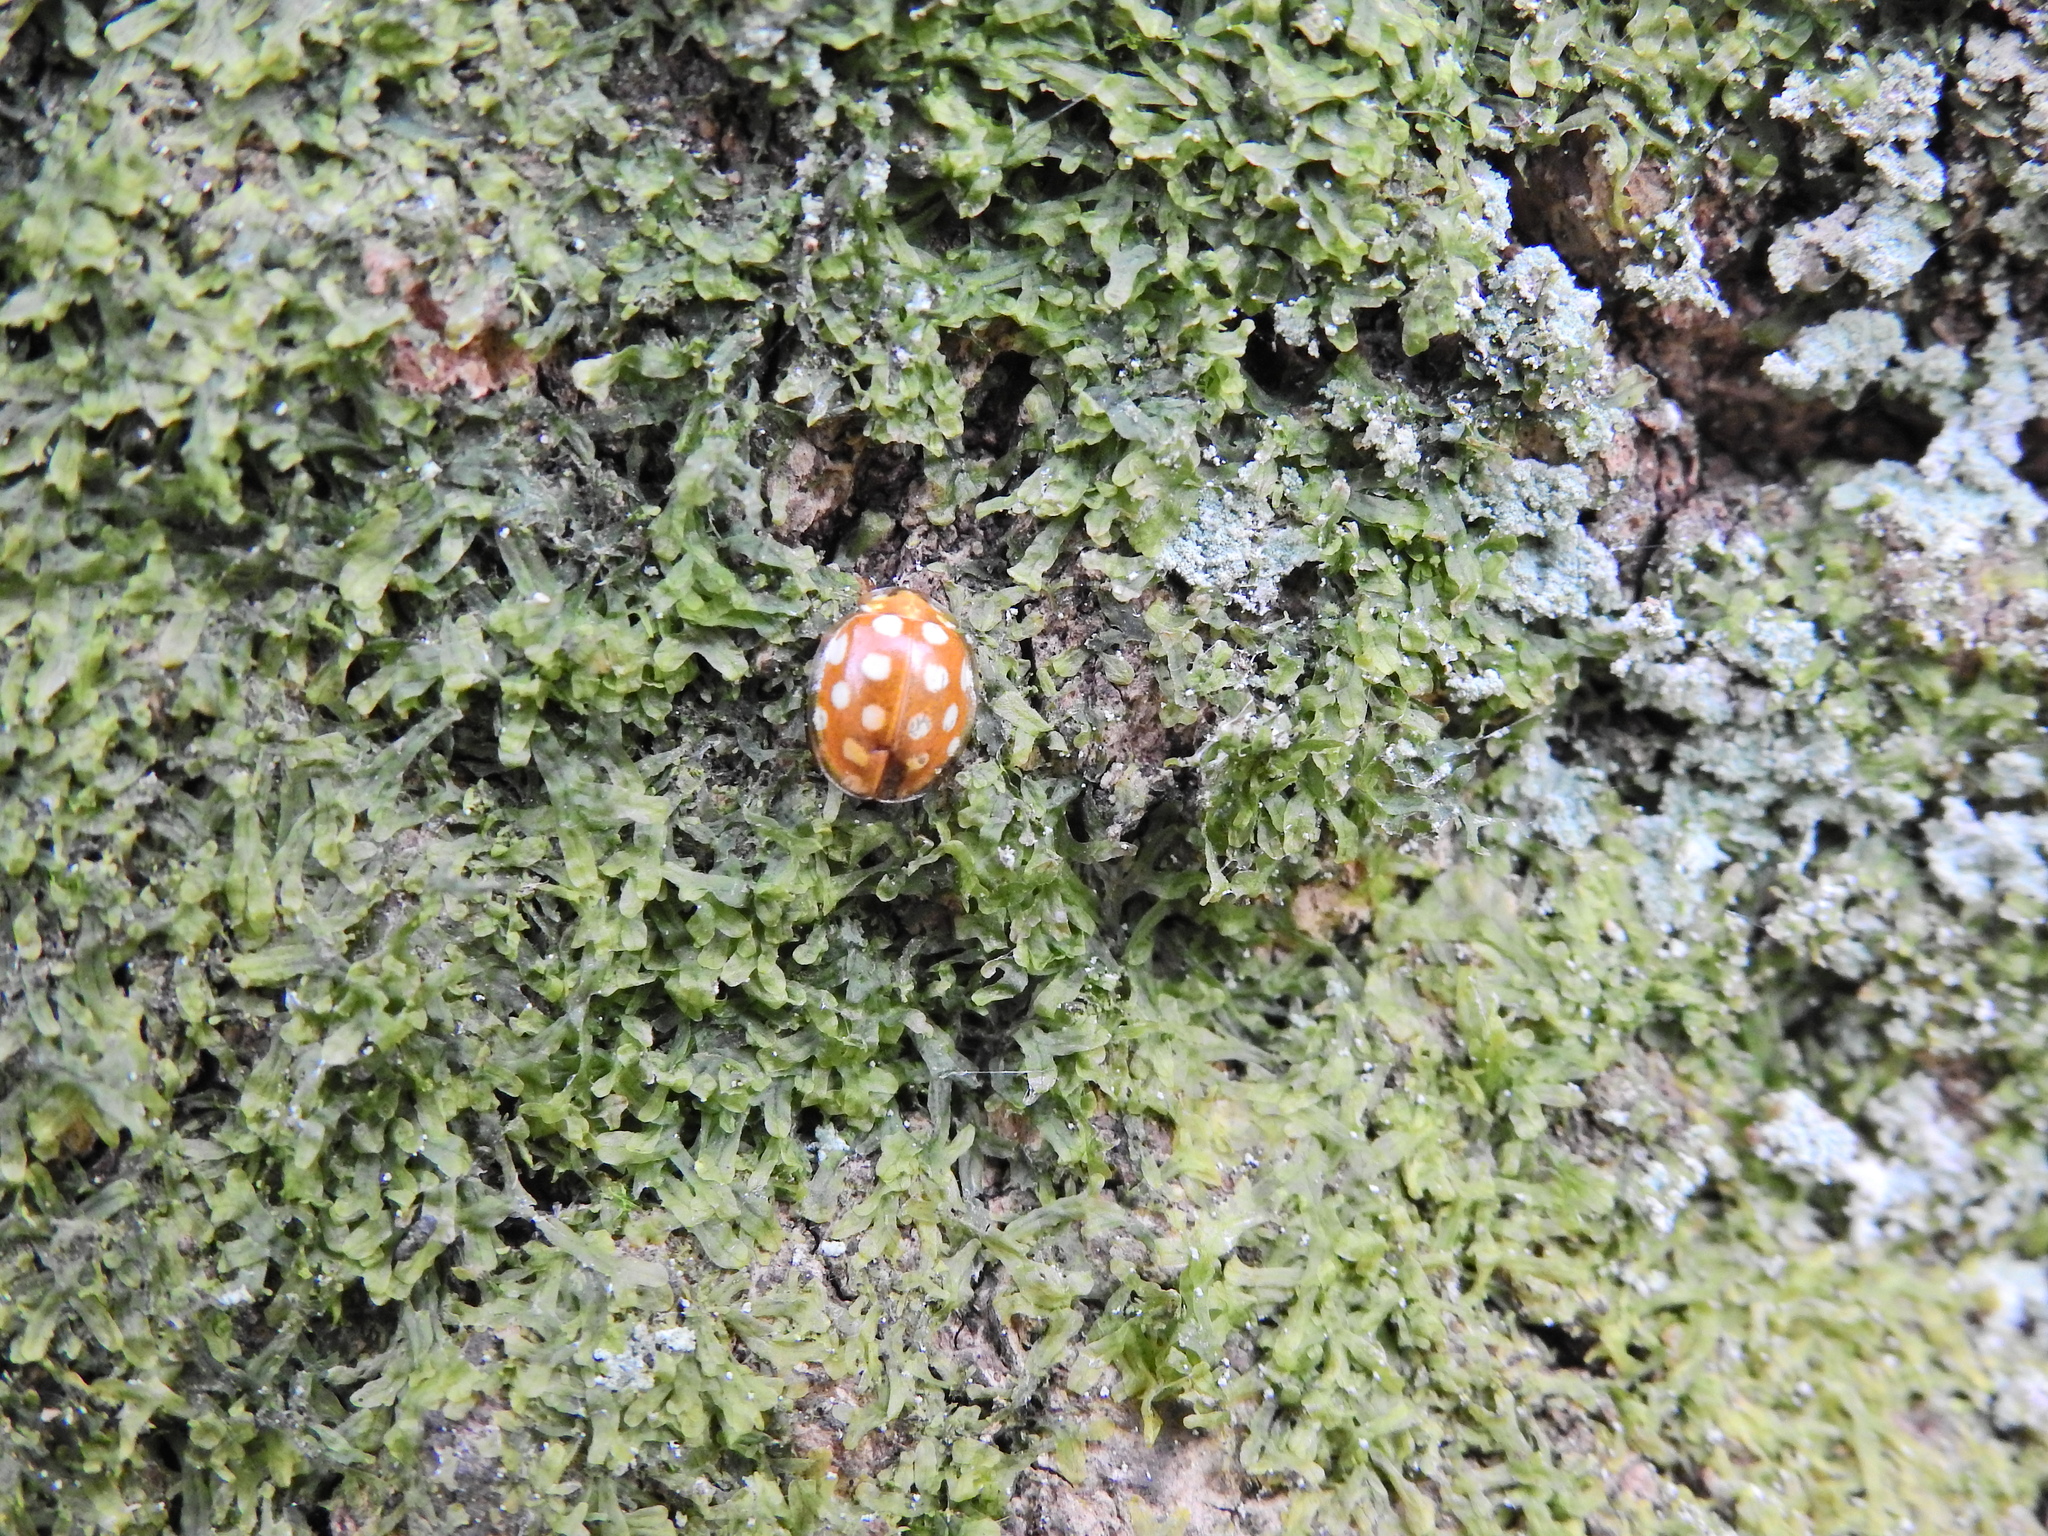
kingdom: Animalia
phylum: Arthropoda
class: Insecta
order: Coleoptera
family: Coccinellidae
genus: Halyzia
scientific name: Halyzia sedecimguttata
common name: Orange ladybird
